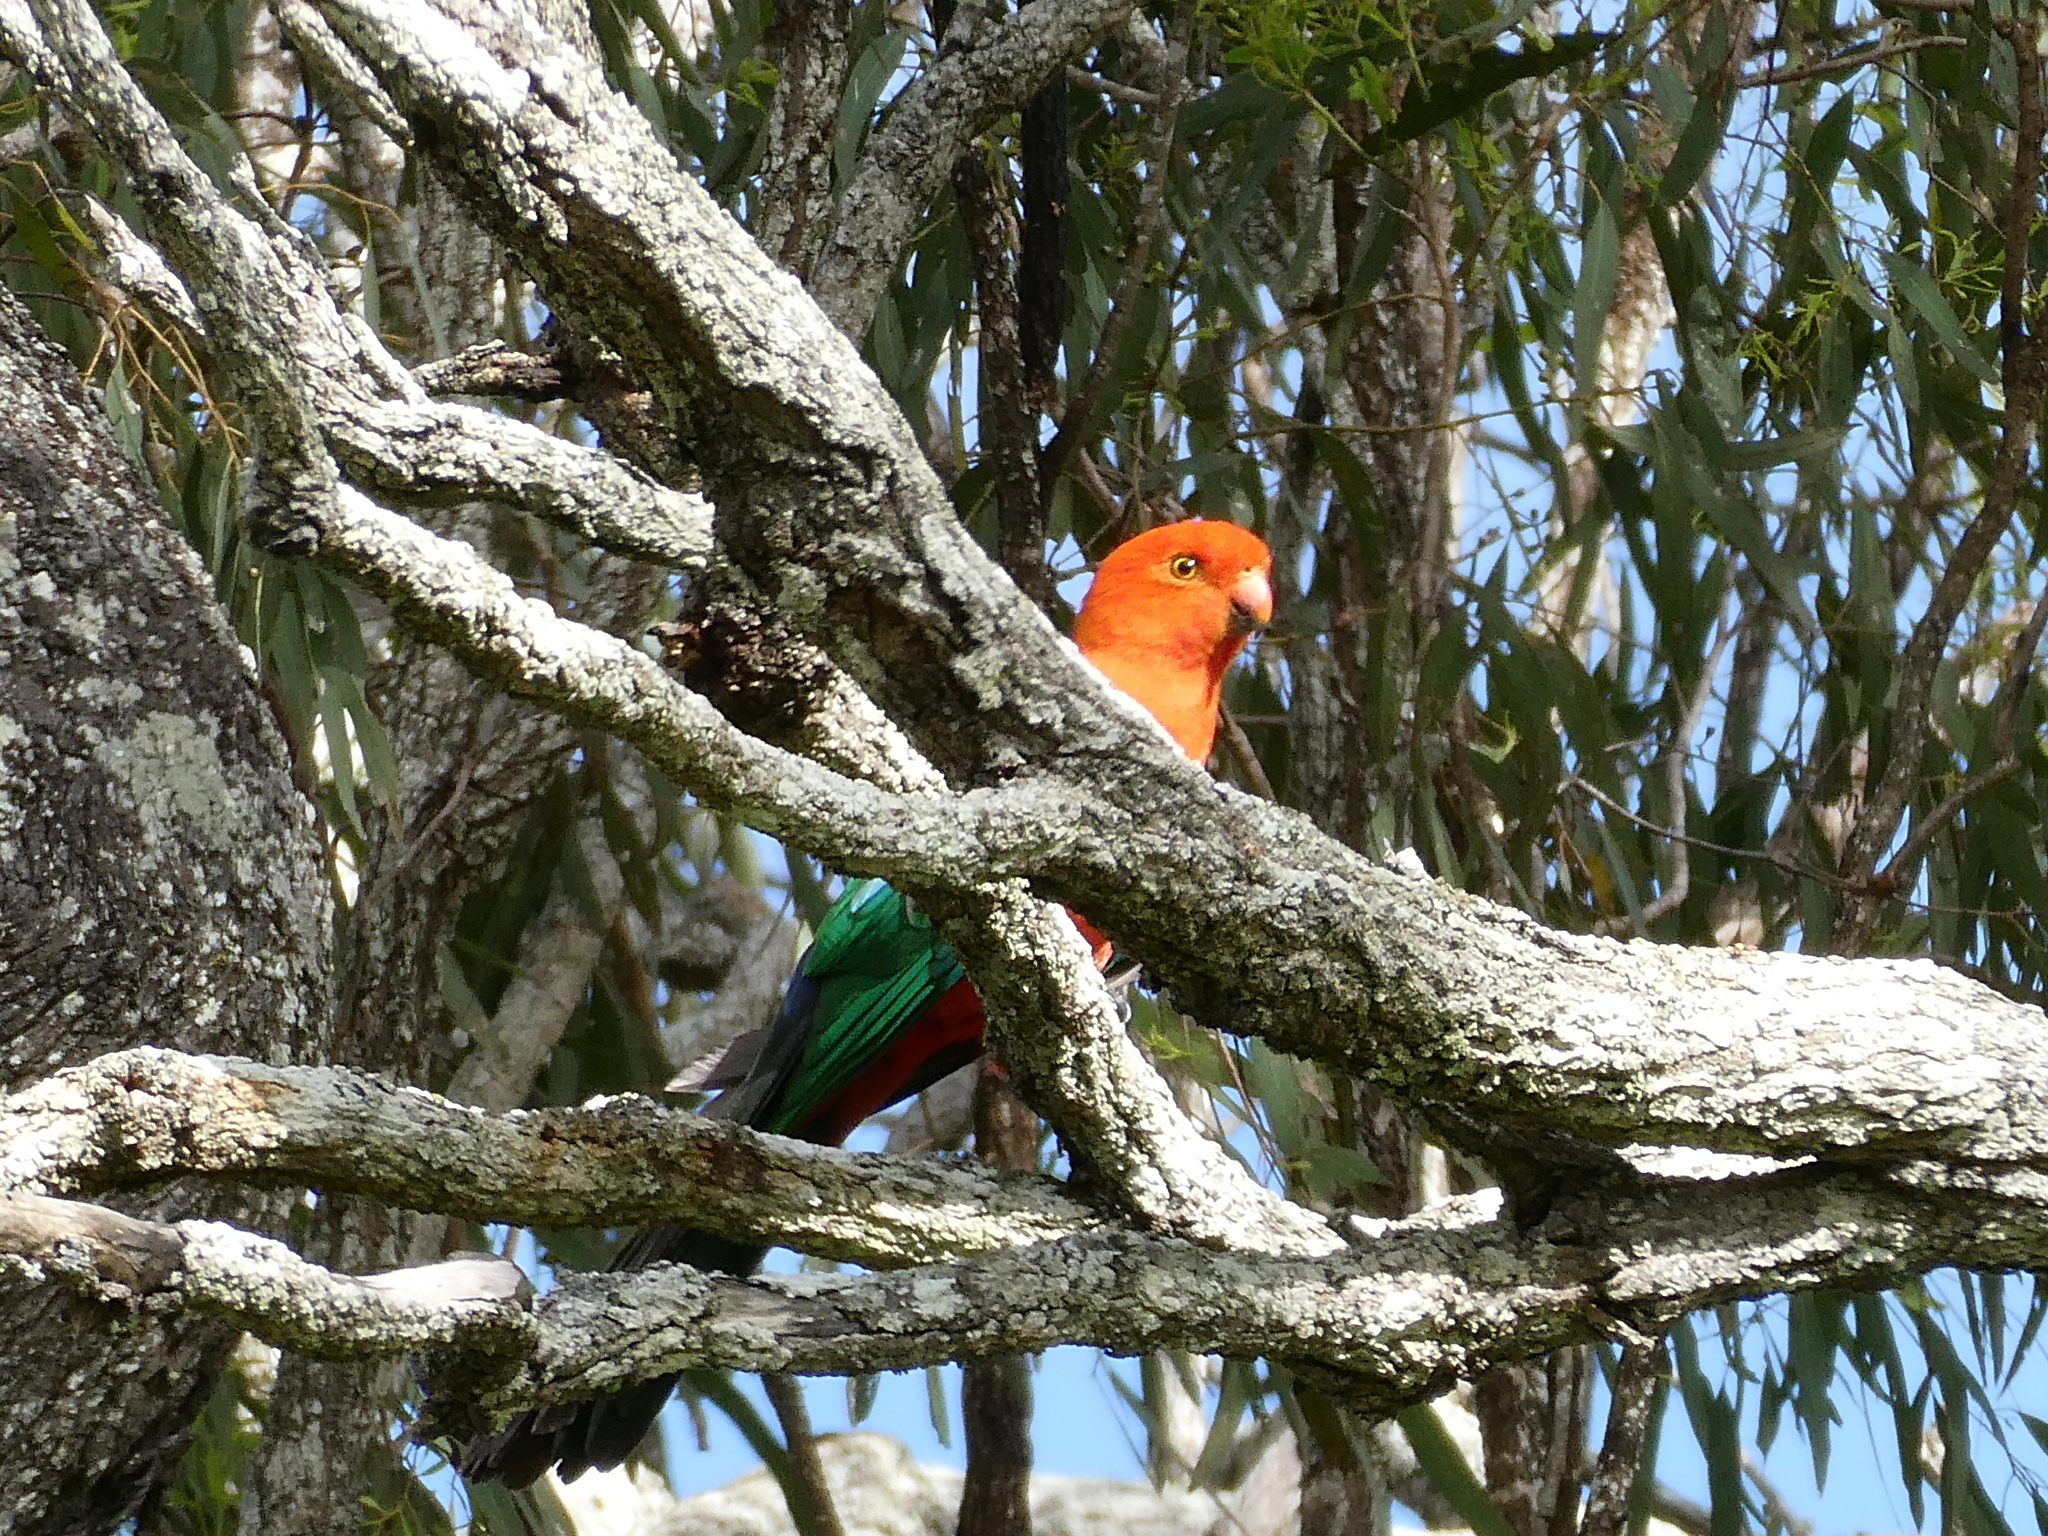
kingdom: Animalia
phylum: Chordata
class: Aves
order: Psittaciformes
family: Psittacidae
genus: Alisterus
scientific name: Alisterus scapularis
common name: Australian king parrot
